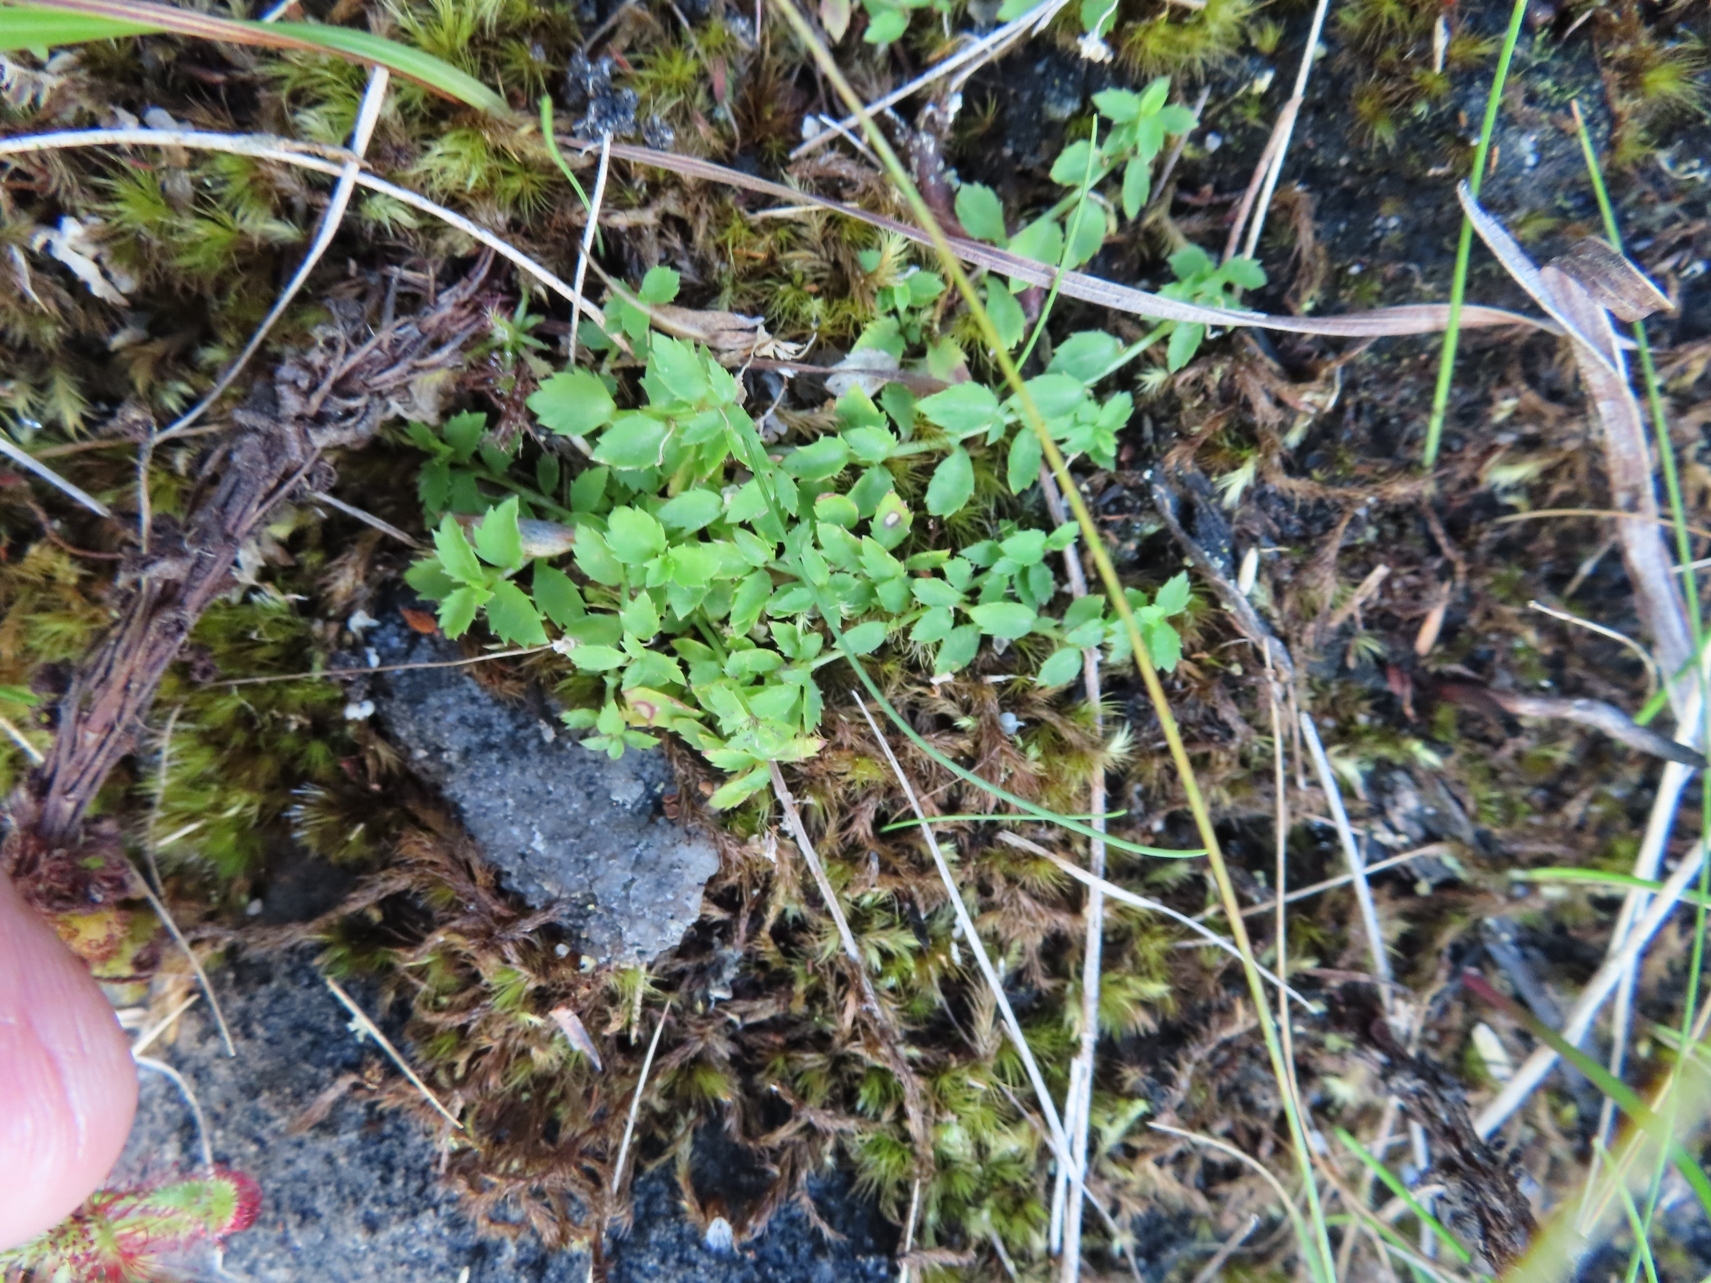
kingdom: Plantae
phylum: Tracheophyta
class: Magnoliopsida
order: Asterales
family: Campanulaceae
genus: Unigenes
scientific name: Unigenes humifusa
